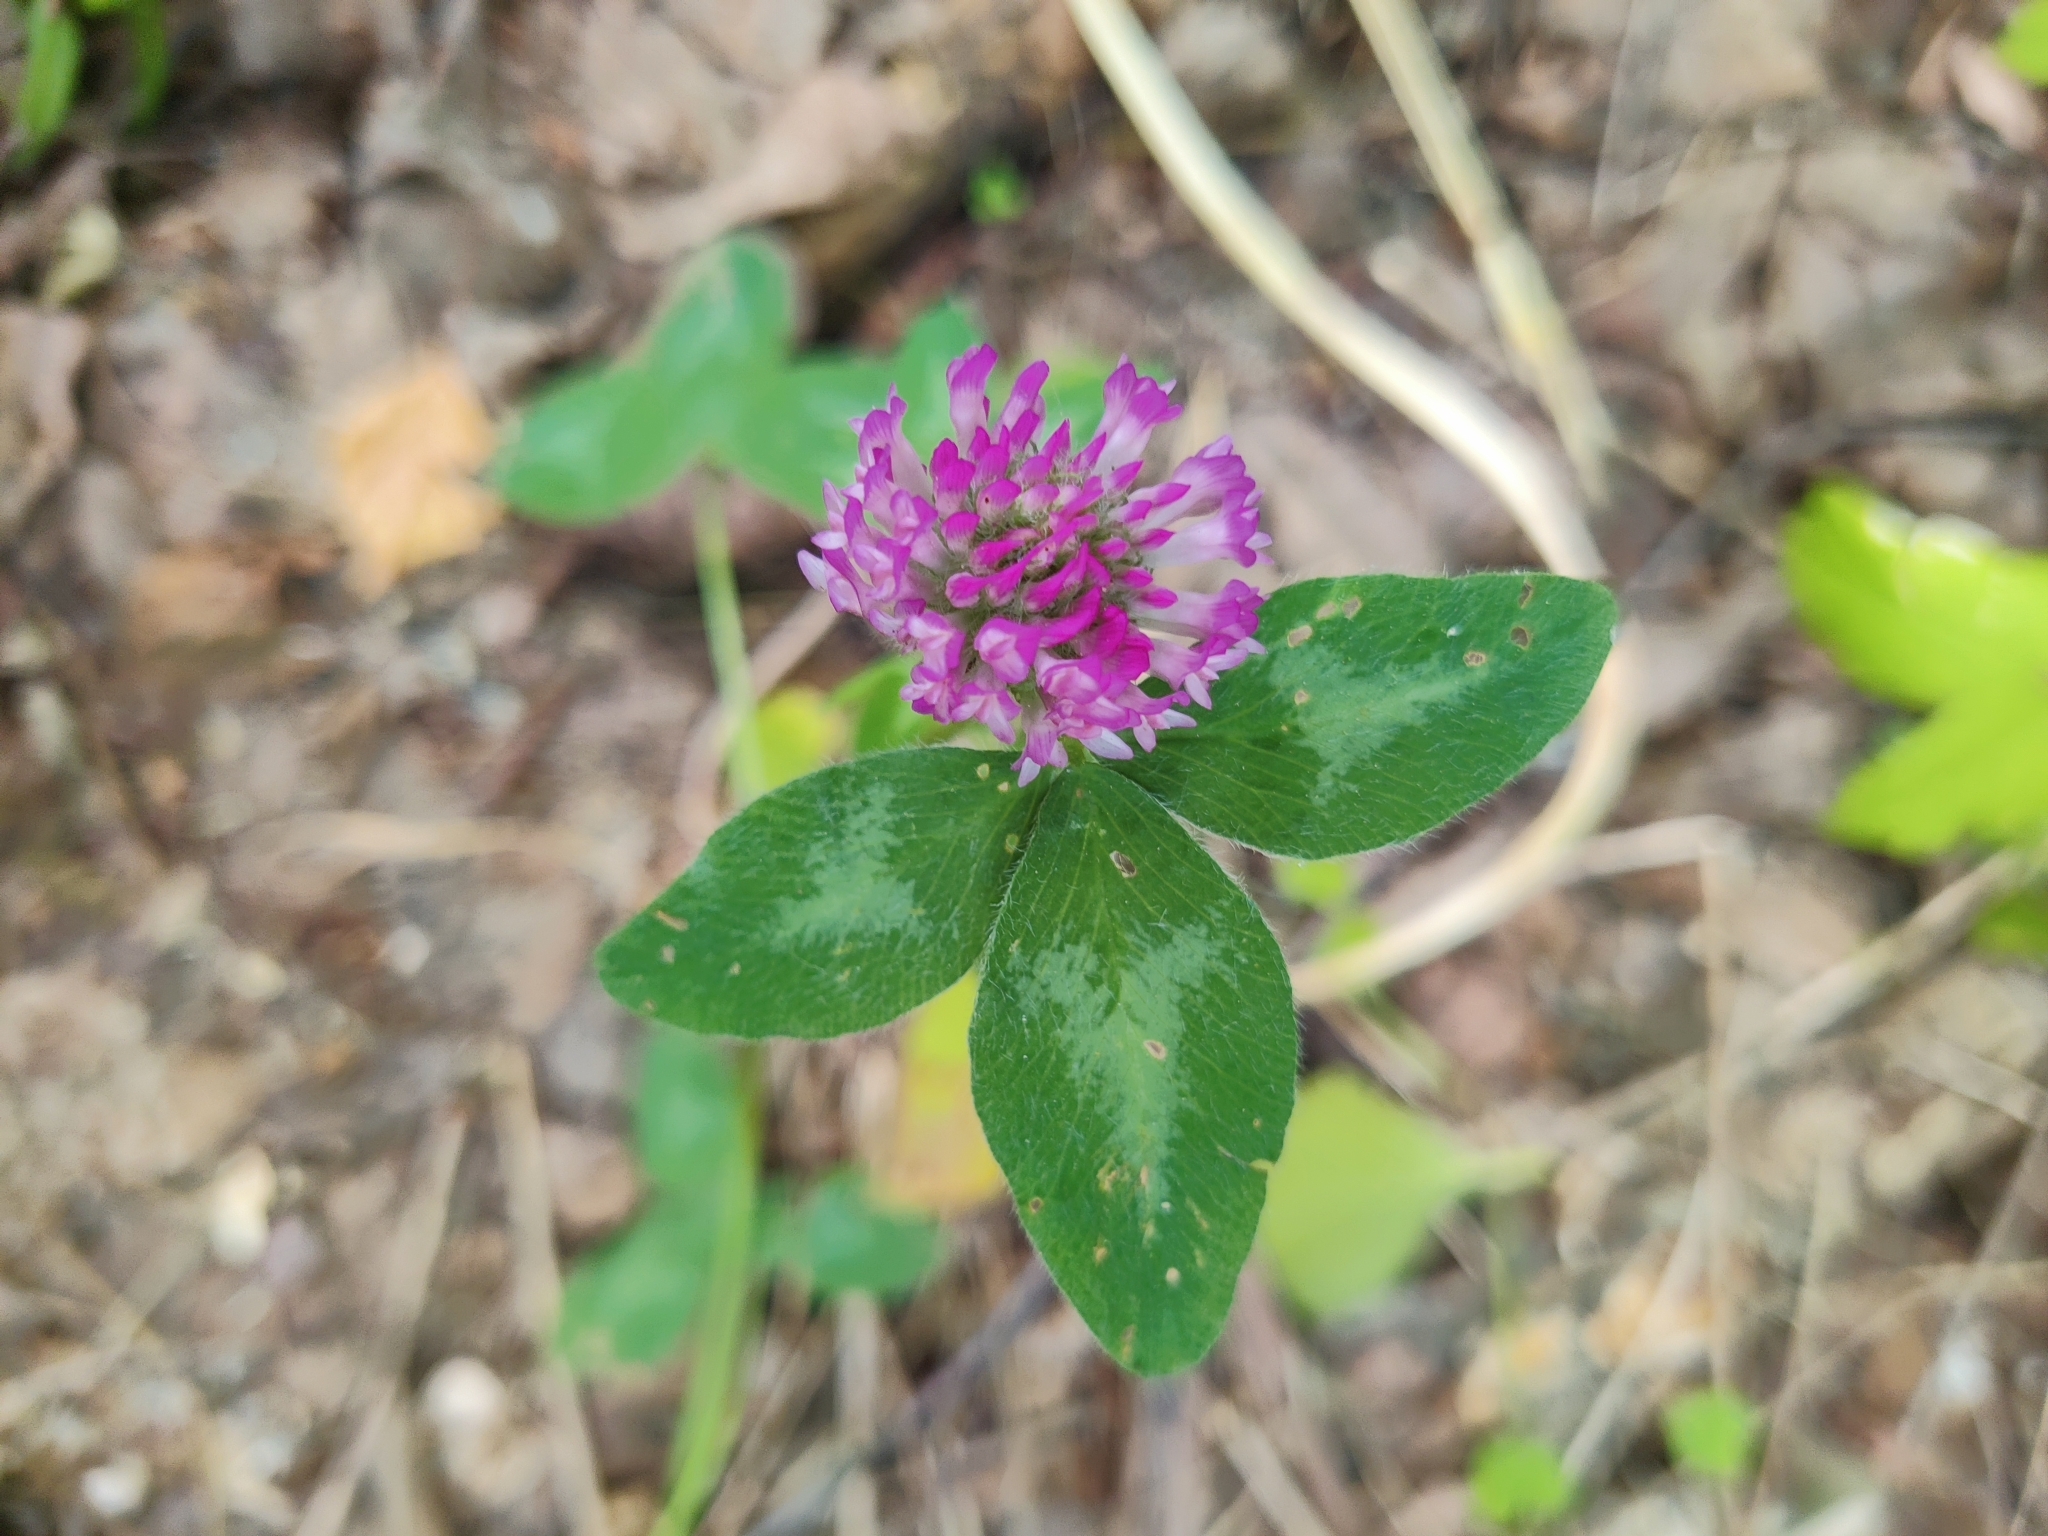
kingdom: Plantae
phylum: Tracheophyta
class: Magnoliopsida
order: Fabales
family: Fabaceae
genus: Trifolium
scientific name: Trifolium pratense
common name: Red clover
